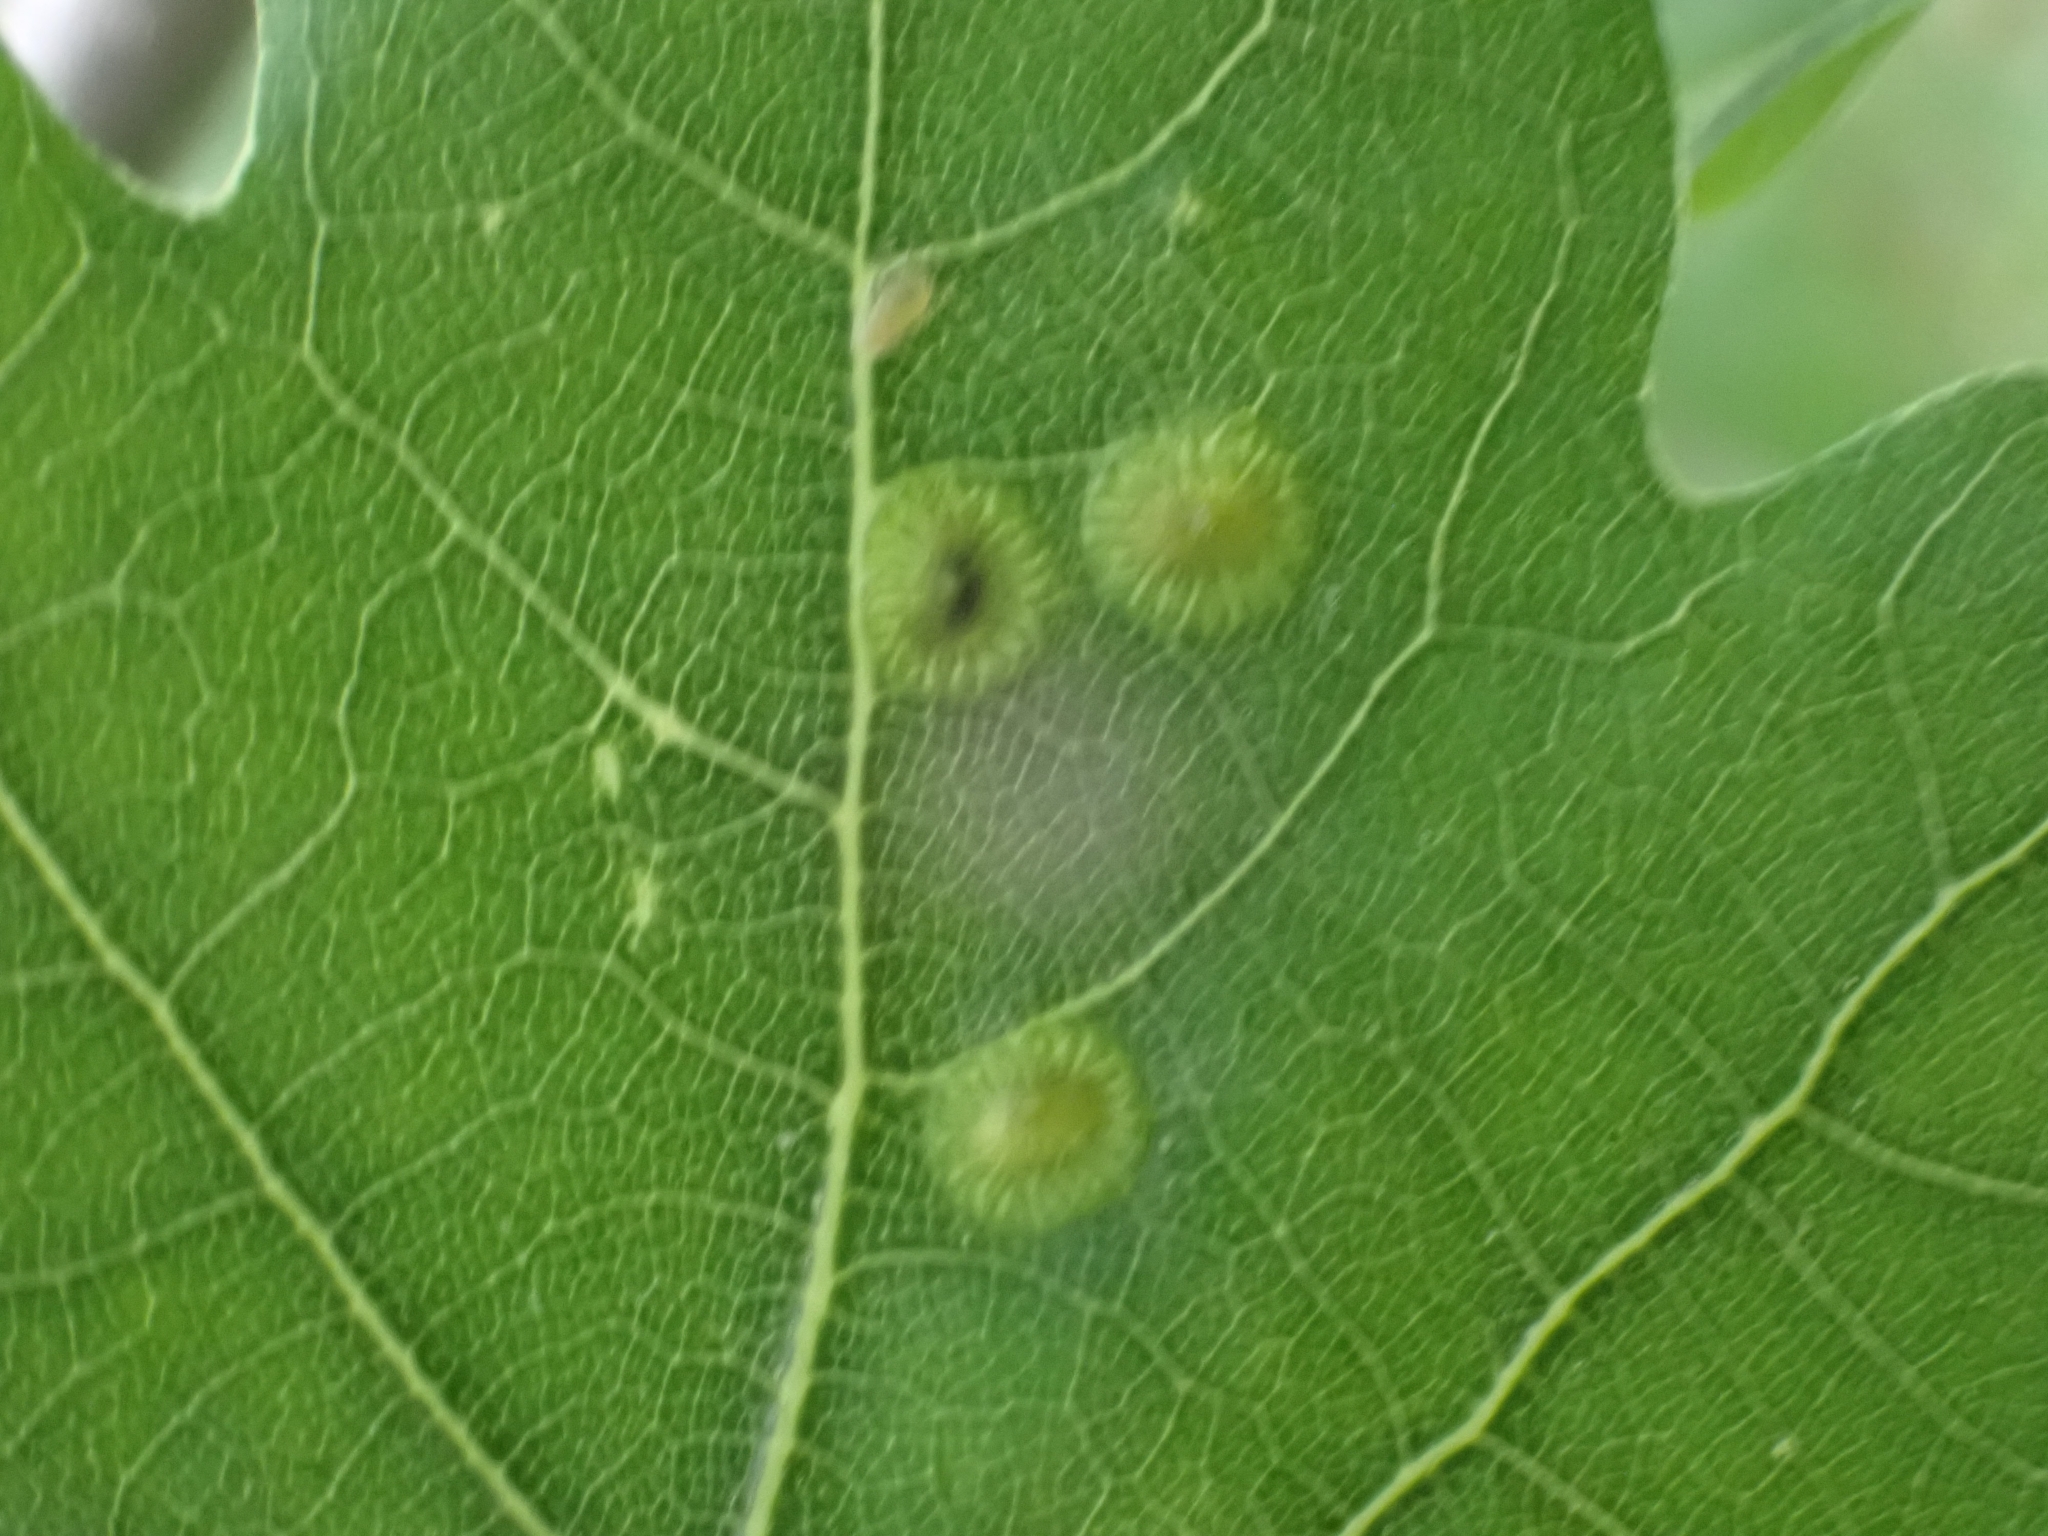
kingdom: Animalia
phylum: Arthropoda
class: Insecta
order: Hymenoptera
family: Cynipidae
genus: Neuroterus
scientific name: Neuroterus numismalis
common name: Silk-button spangle gall
